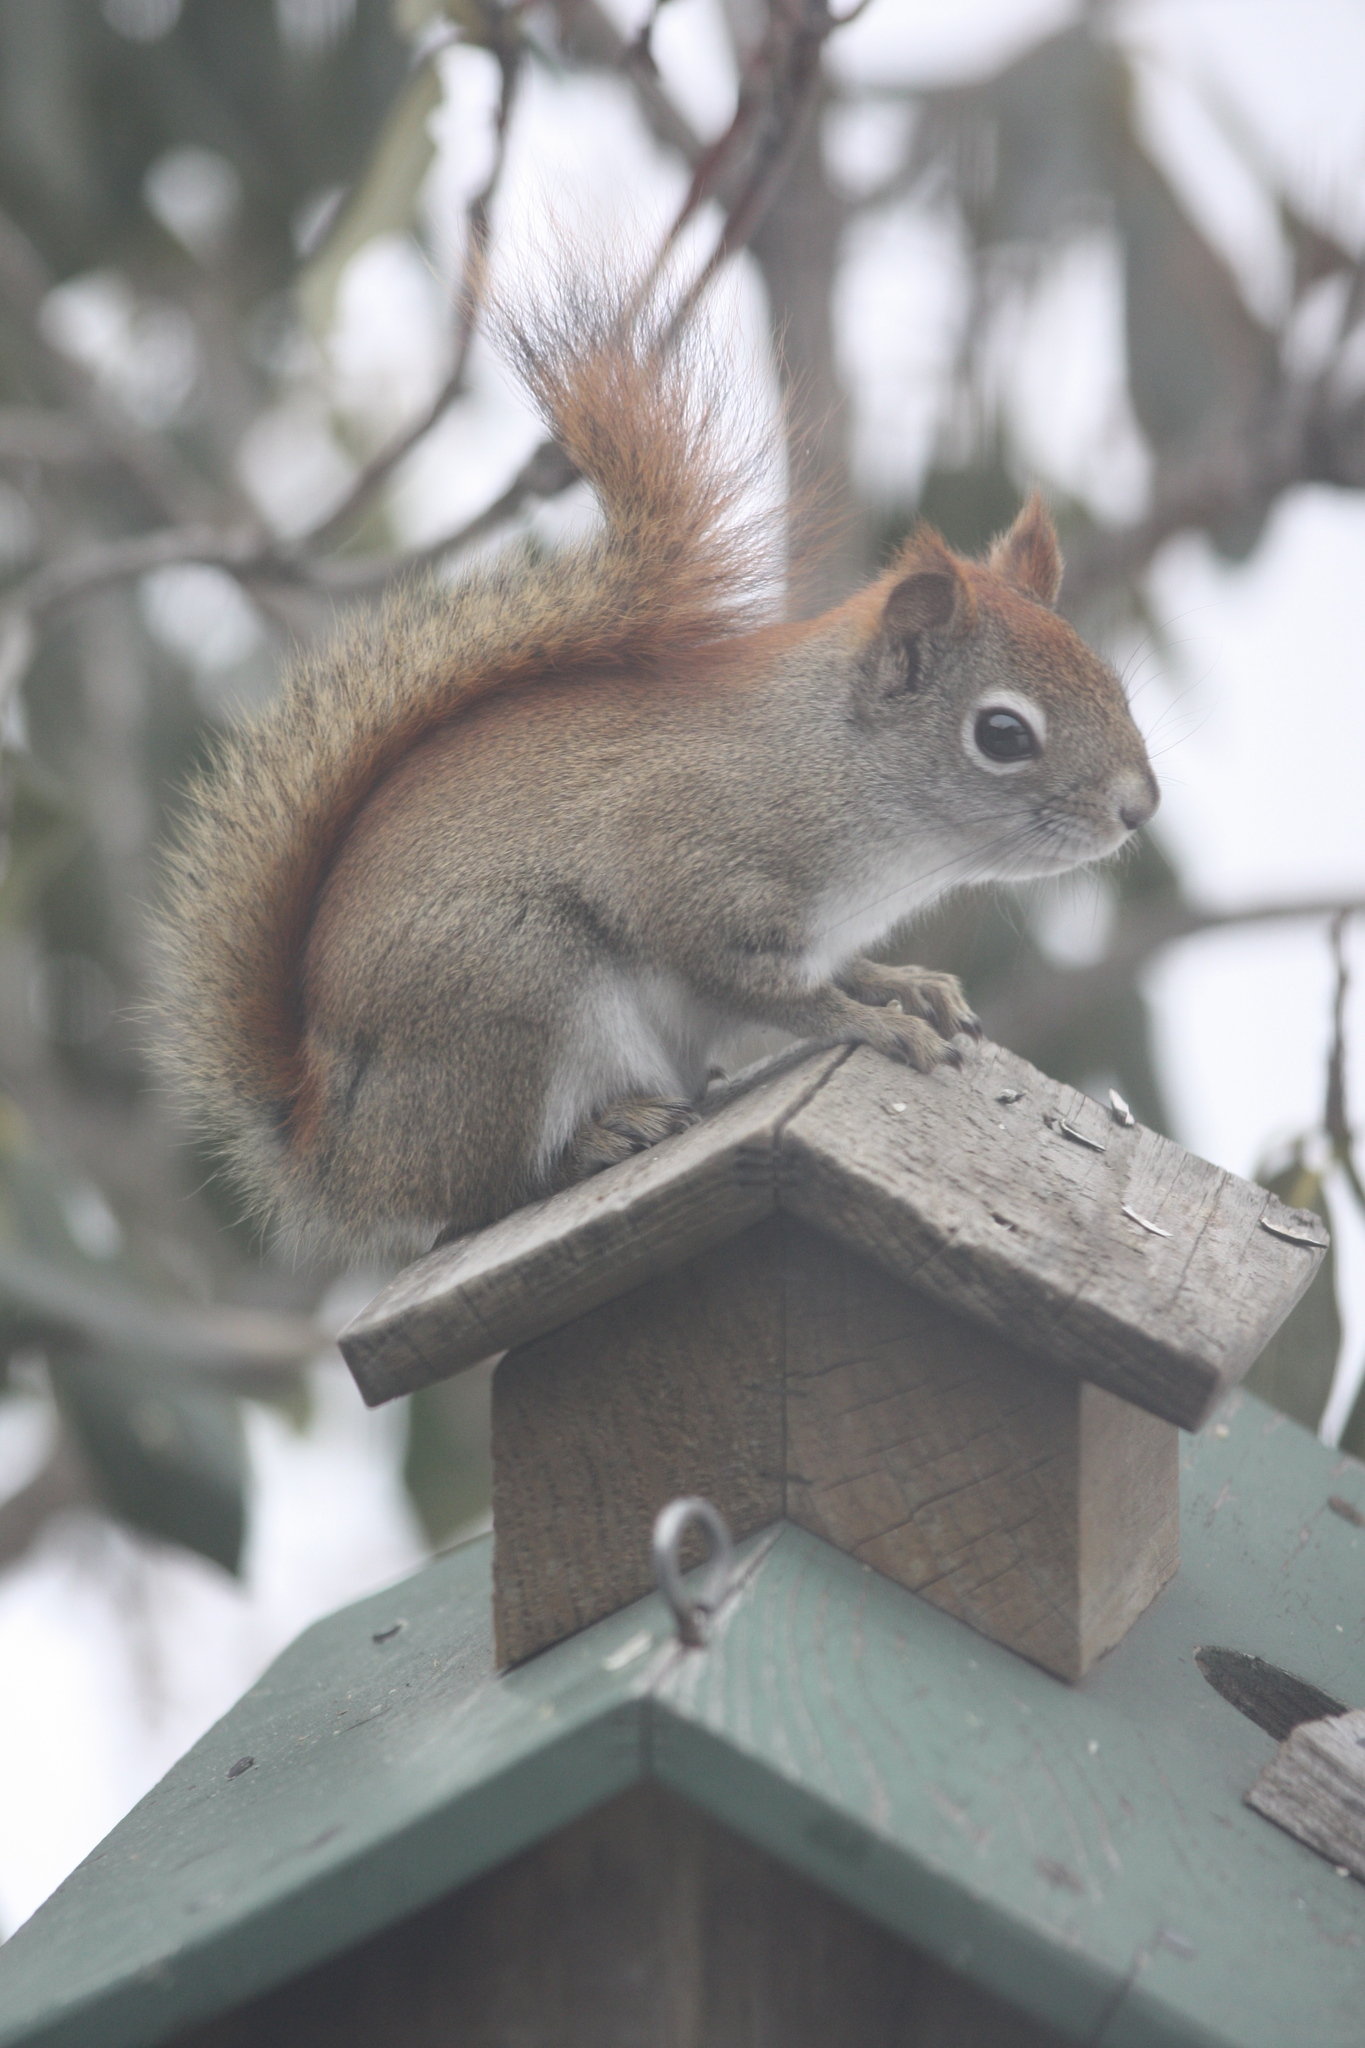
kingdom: Animalia
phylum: Chordata
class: Mammalia
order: Rodentia
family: Sciuridae
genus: Tamiasciurus
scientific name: Tamiasciurus hudsonicus
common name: Red squirrel
